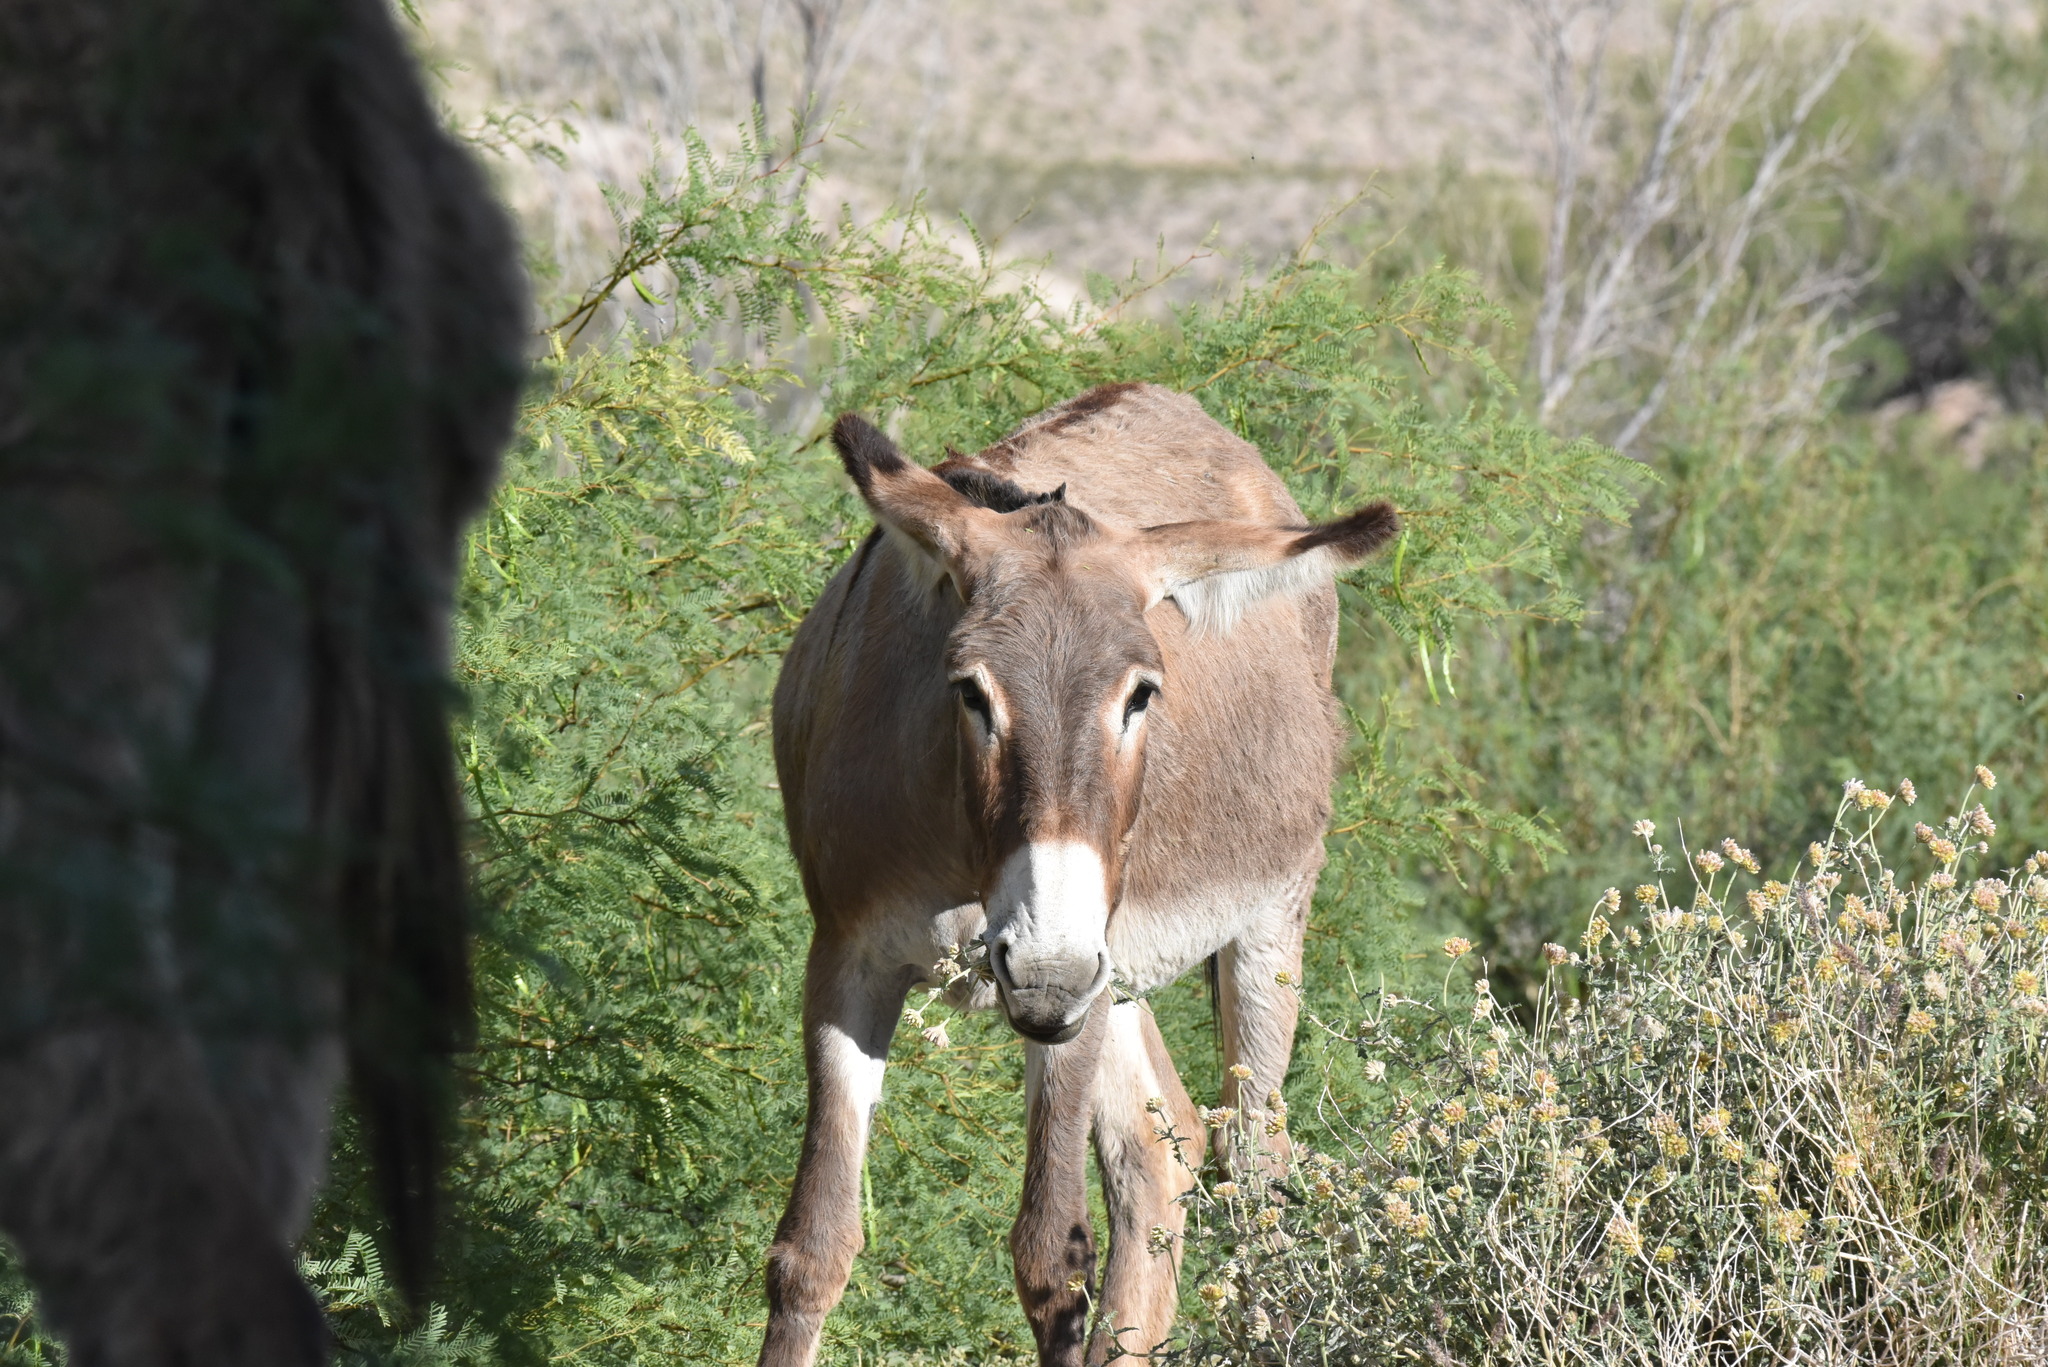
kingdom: Animalia
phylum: Chordata
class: Mammalia
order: Perissodactyla
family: Equidae
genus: Equus
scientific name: Equus asinus
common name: Ass
